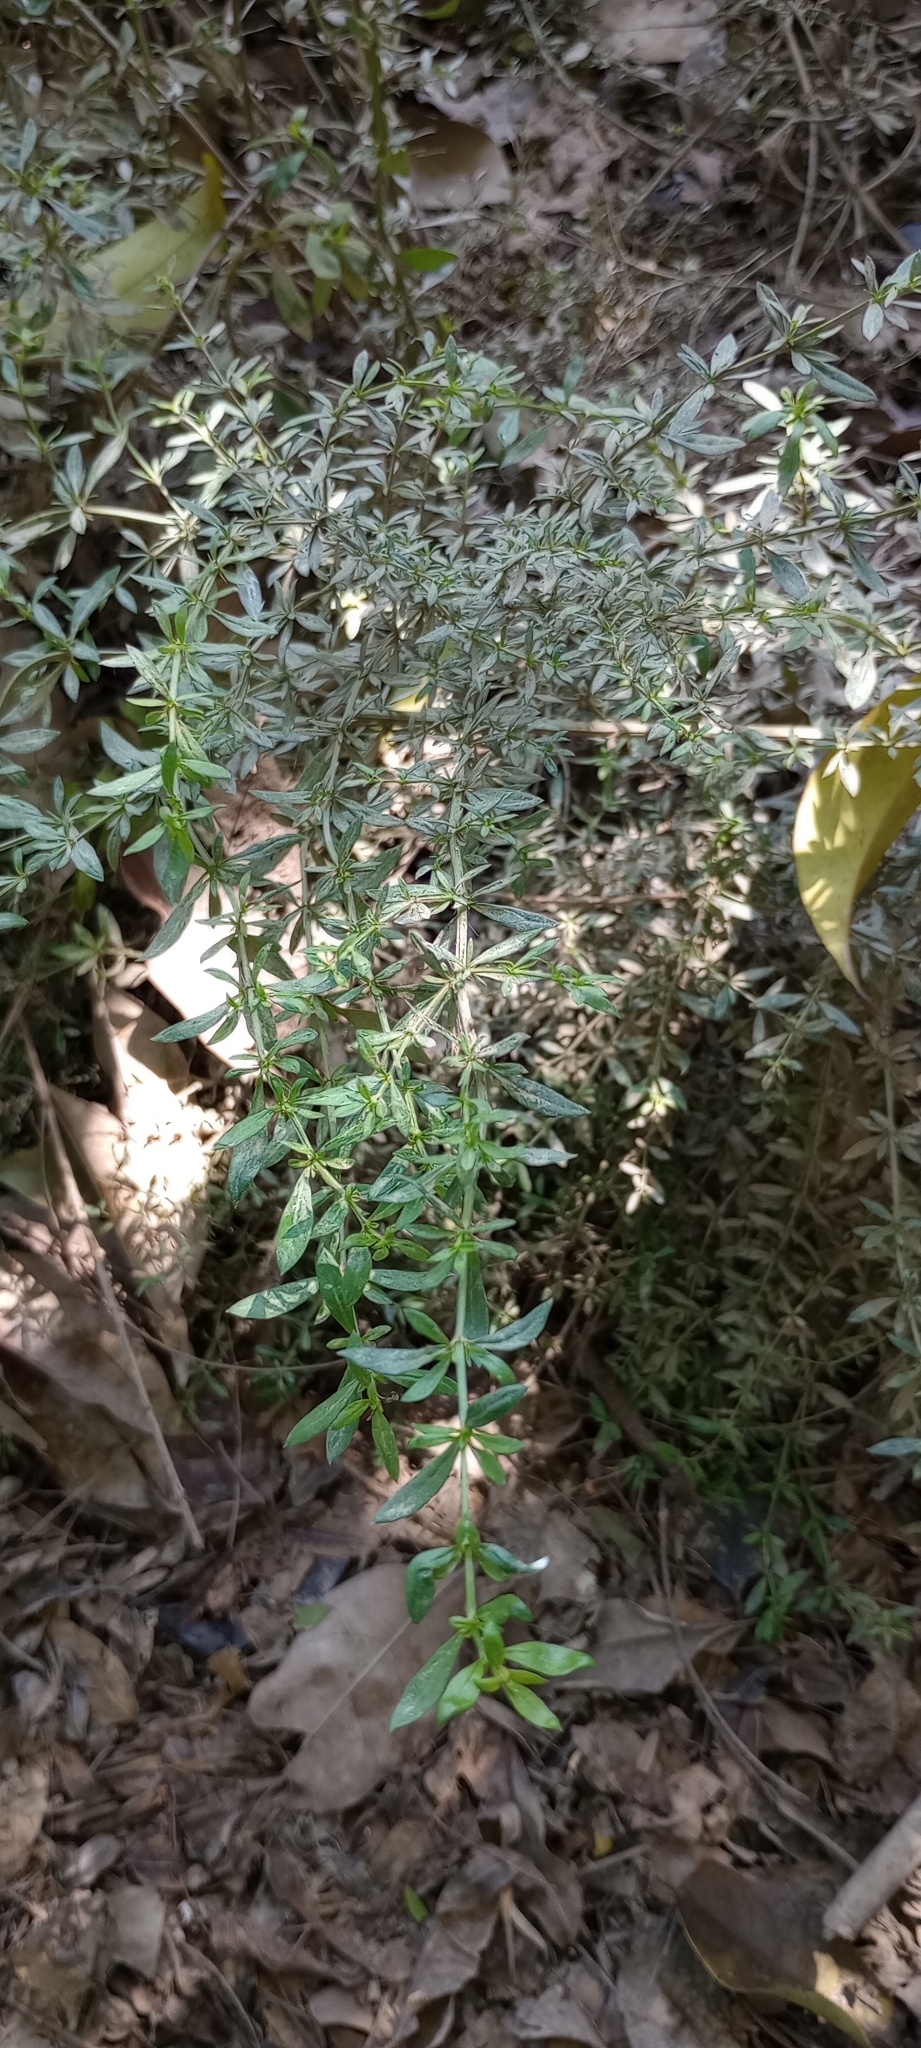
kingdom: Plantae
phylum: Tracheophyta
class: Magnoliopsida
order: Gentianales
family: Rubiaceae
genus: Galianthe
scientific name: Galianthe brasiliensis
